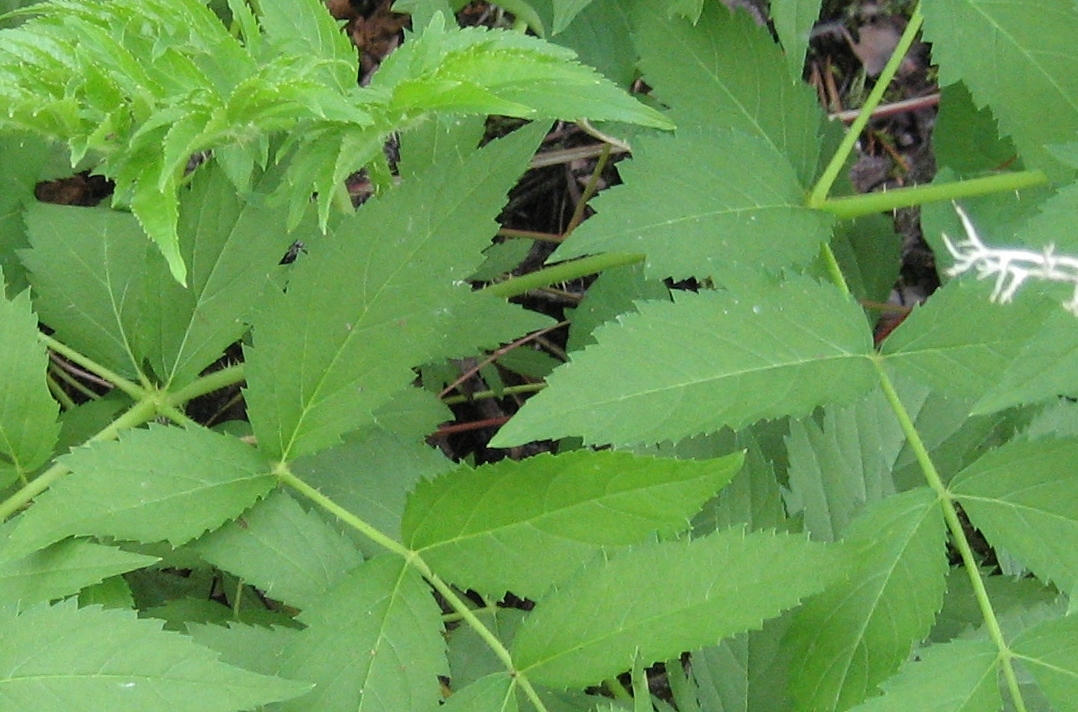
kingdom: Plantae
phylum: Tracheophyta
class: Magnoliopsida
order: Apiales
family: Araliaceae
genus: Aralia
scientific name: Aralia hispida
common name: Bristly sarsaparilla
